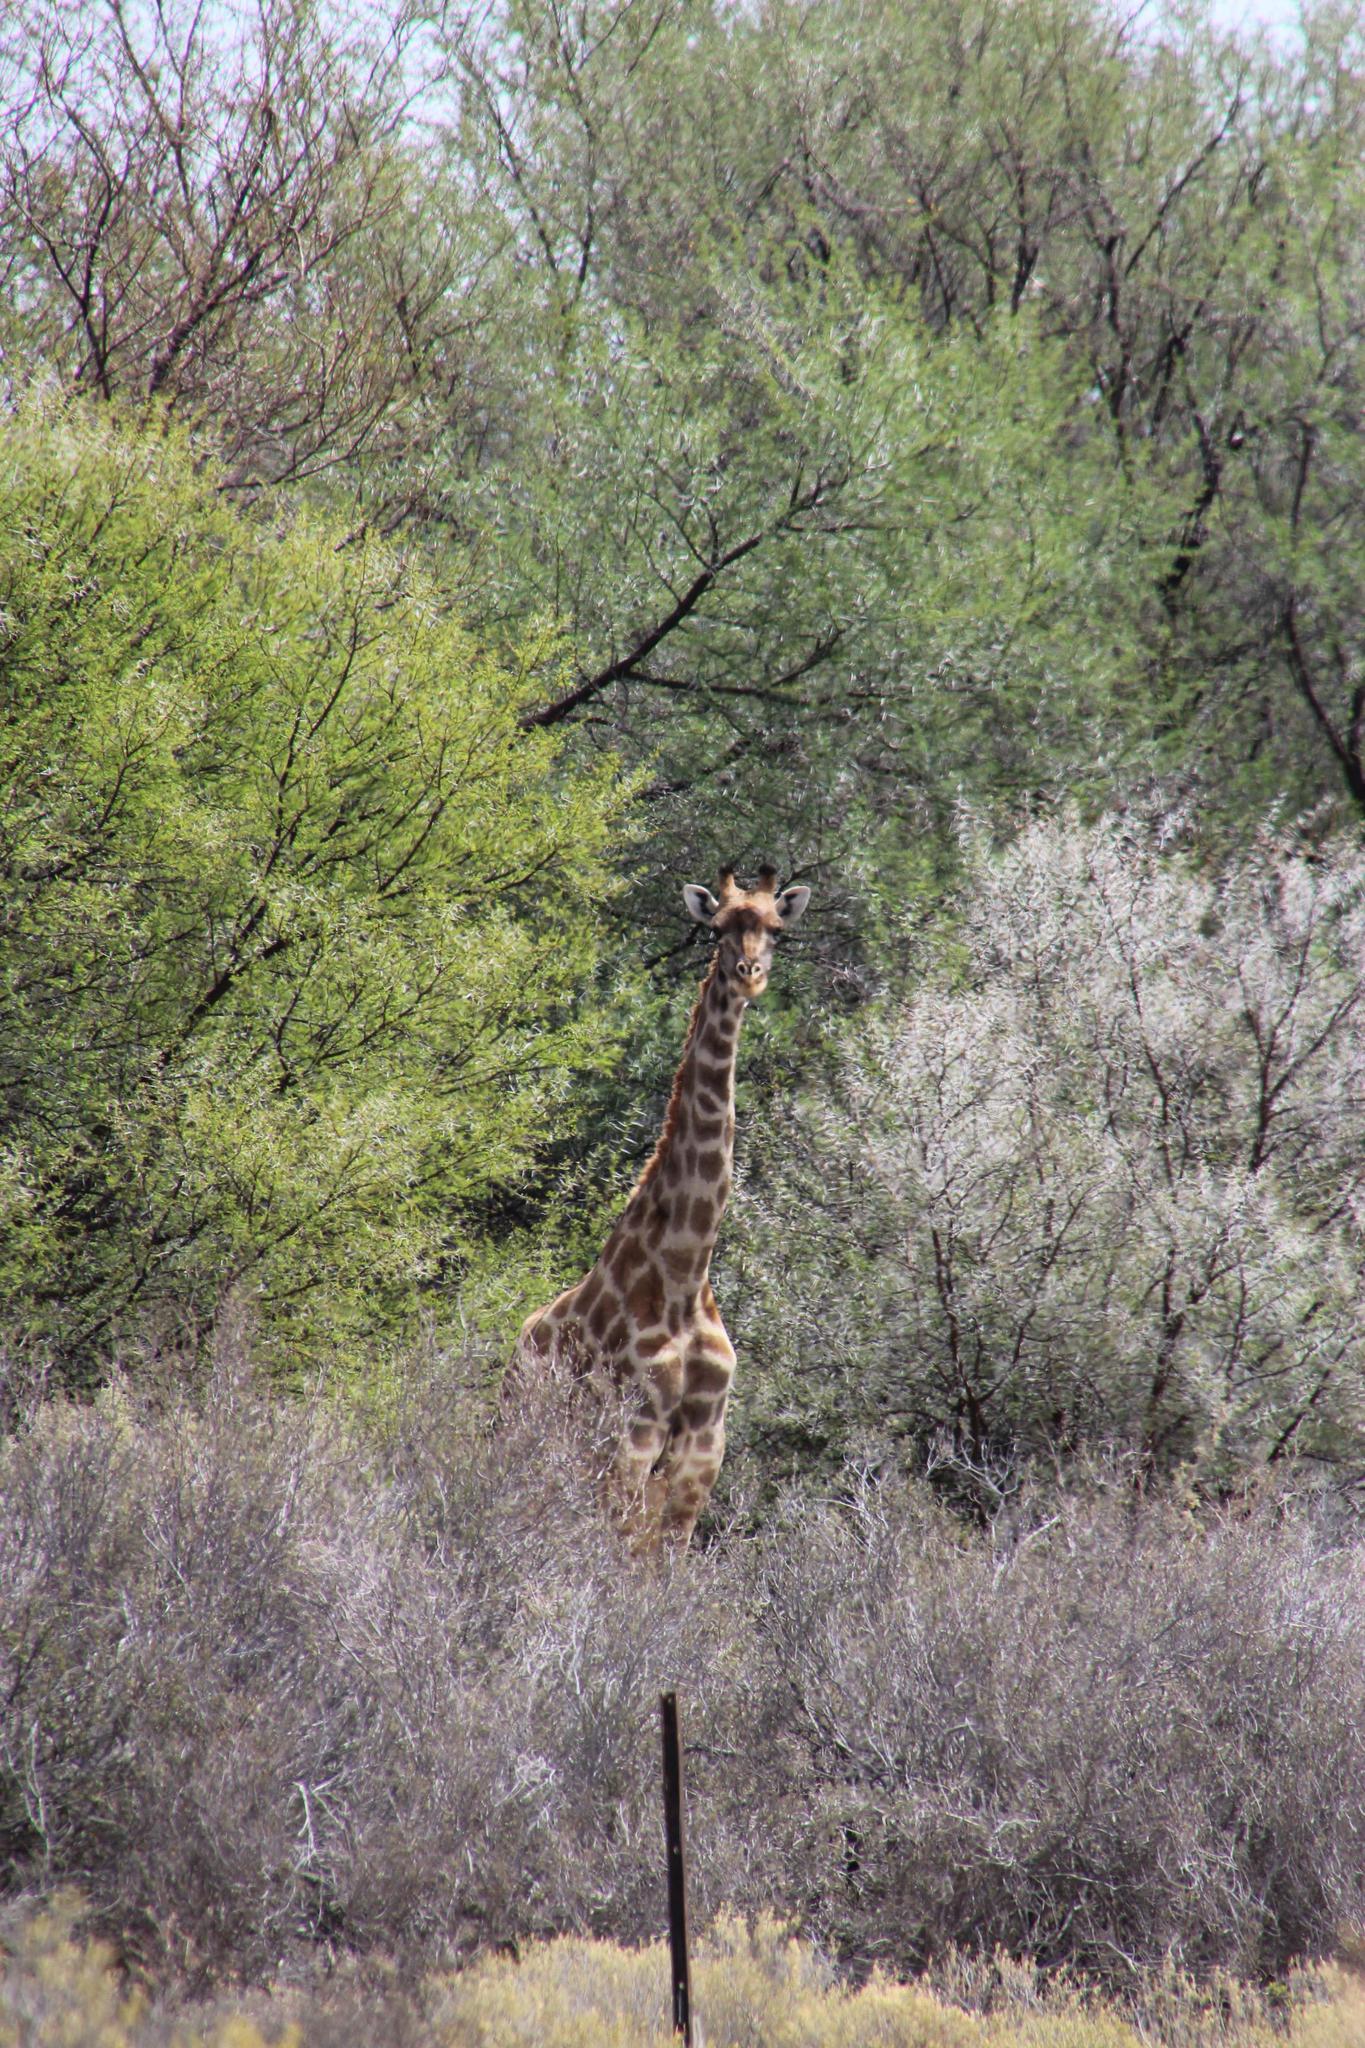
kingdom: Animalia
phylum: Chordata
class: Mammalia
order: Artiodactyla
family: Giraffidae
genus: Giraffa
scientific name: Giraffa giraffa
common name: Southern giraffe
